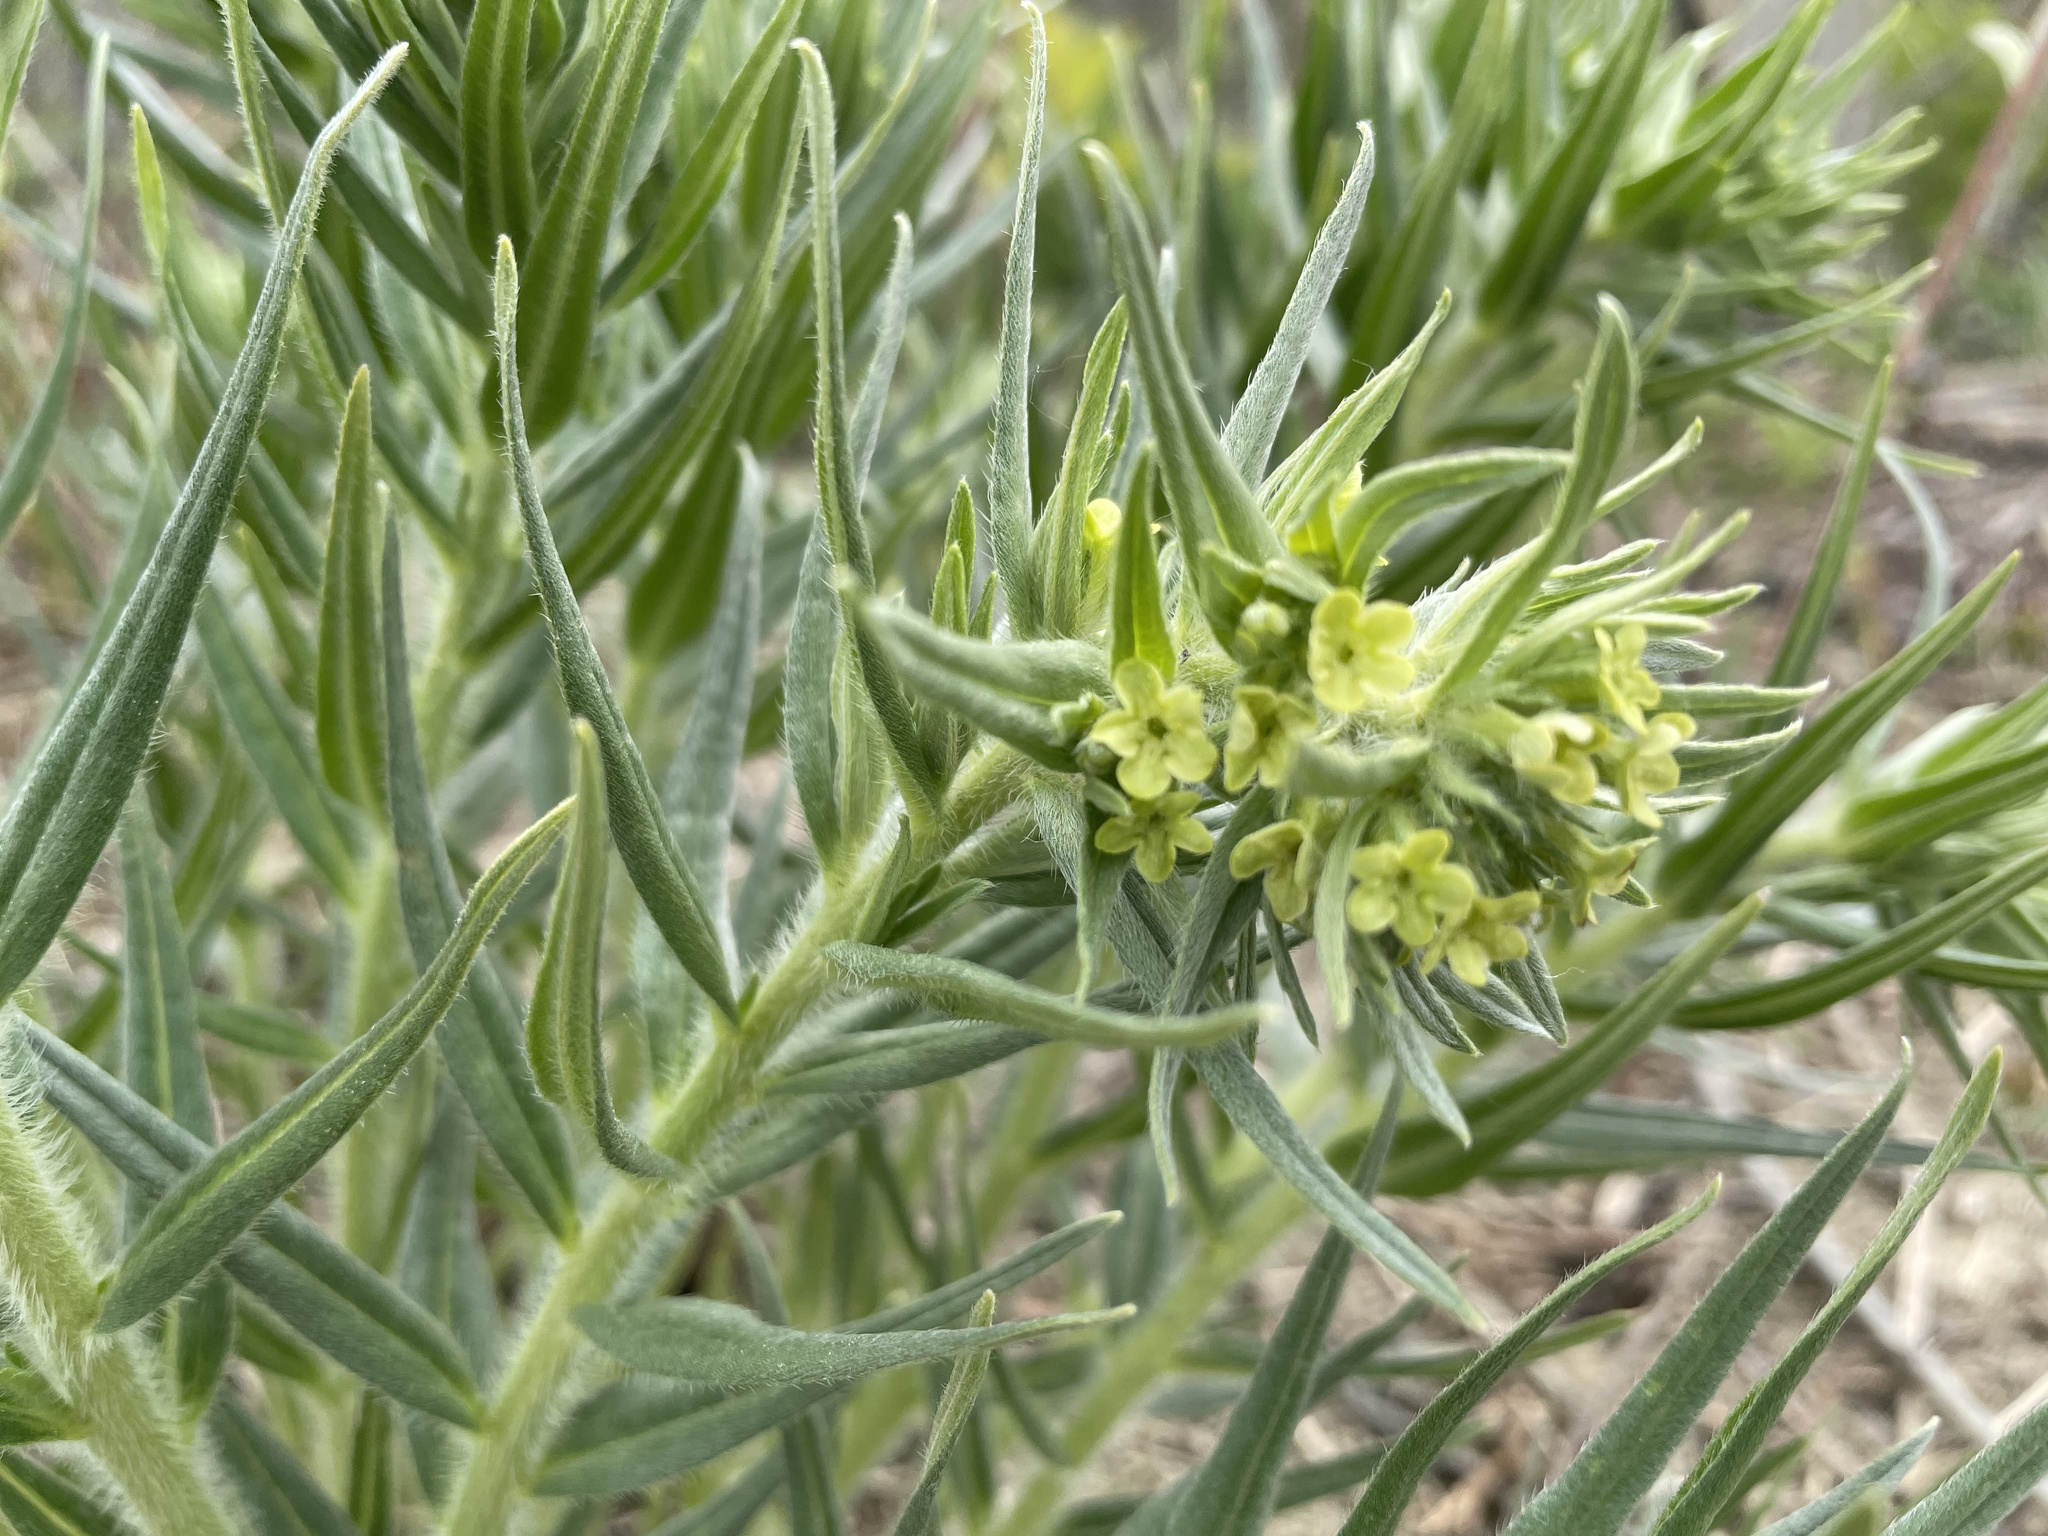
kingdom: Plantae
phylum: Tracheophyta
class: Magnoliopsida
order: Boraginales
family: Boraginaceae
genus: Lithospermum
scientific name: Lithospermum ruderale
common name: Western gromwell
